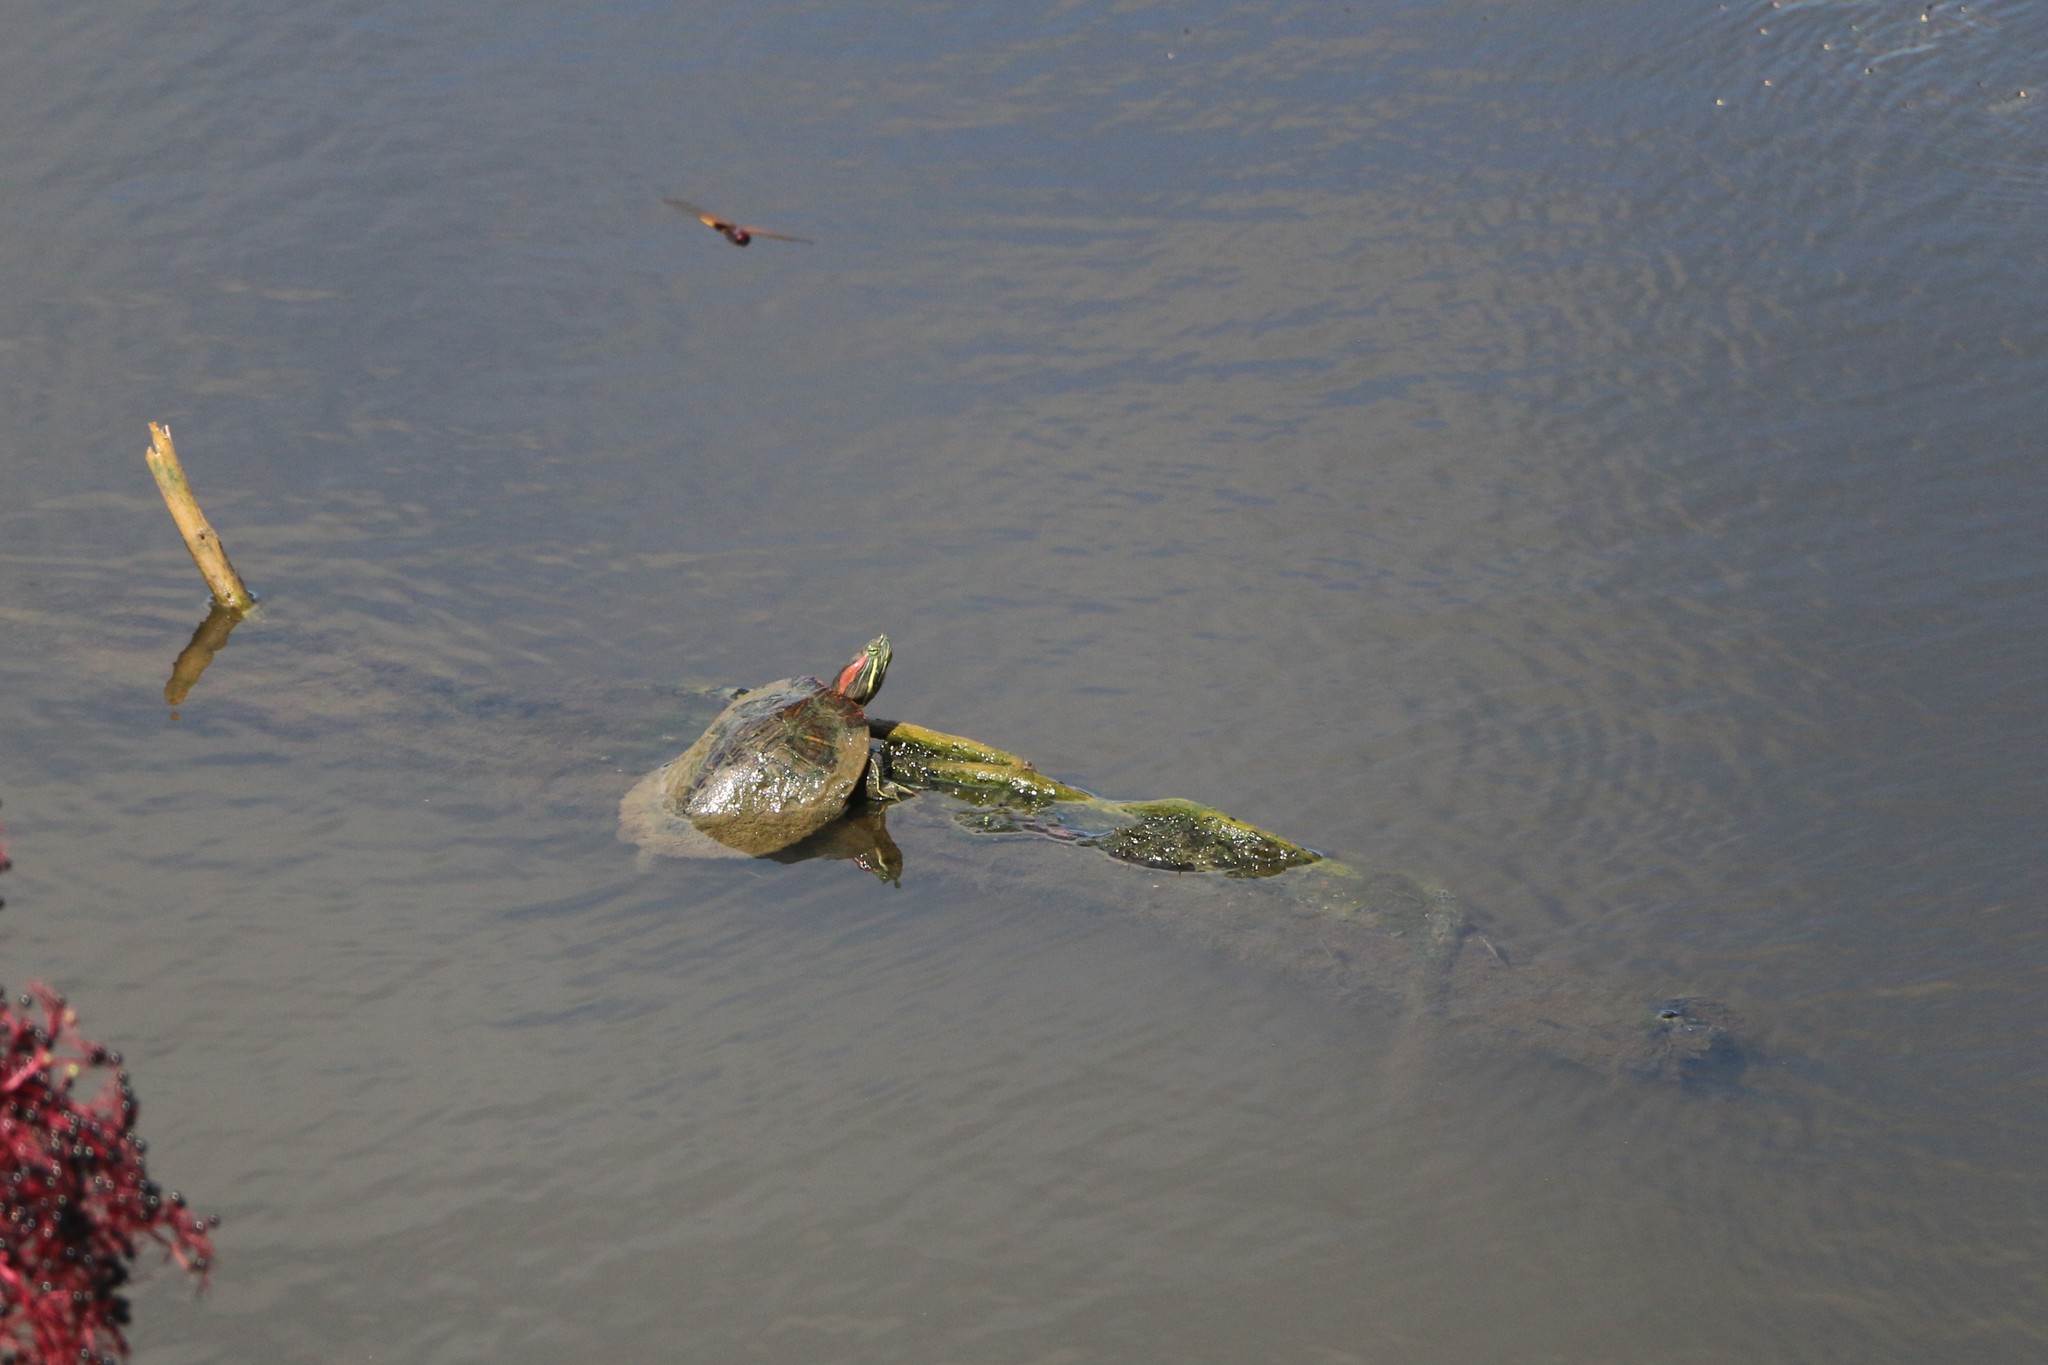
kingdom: Animalia
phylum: Chordata
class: Testudines
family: Emydidae
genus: Trachemys
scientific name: Trachemys scripta
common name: Slider
